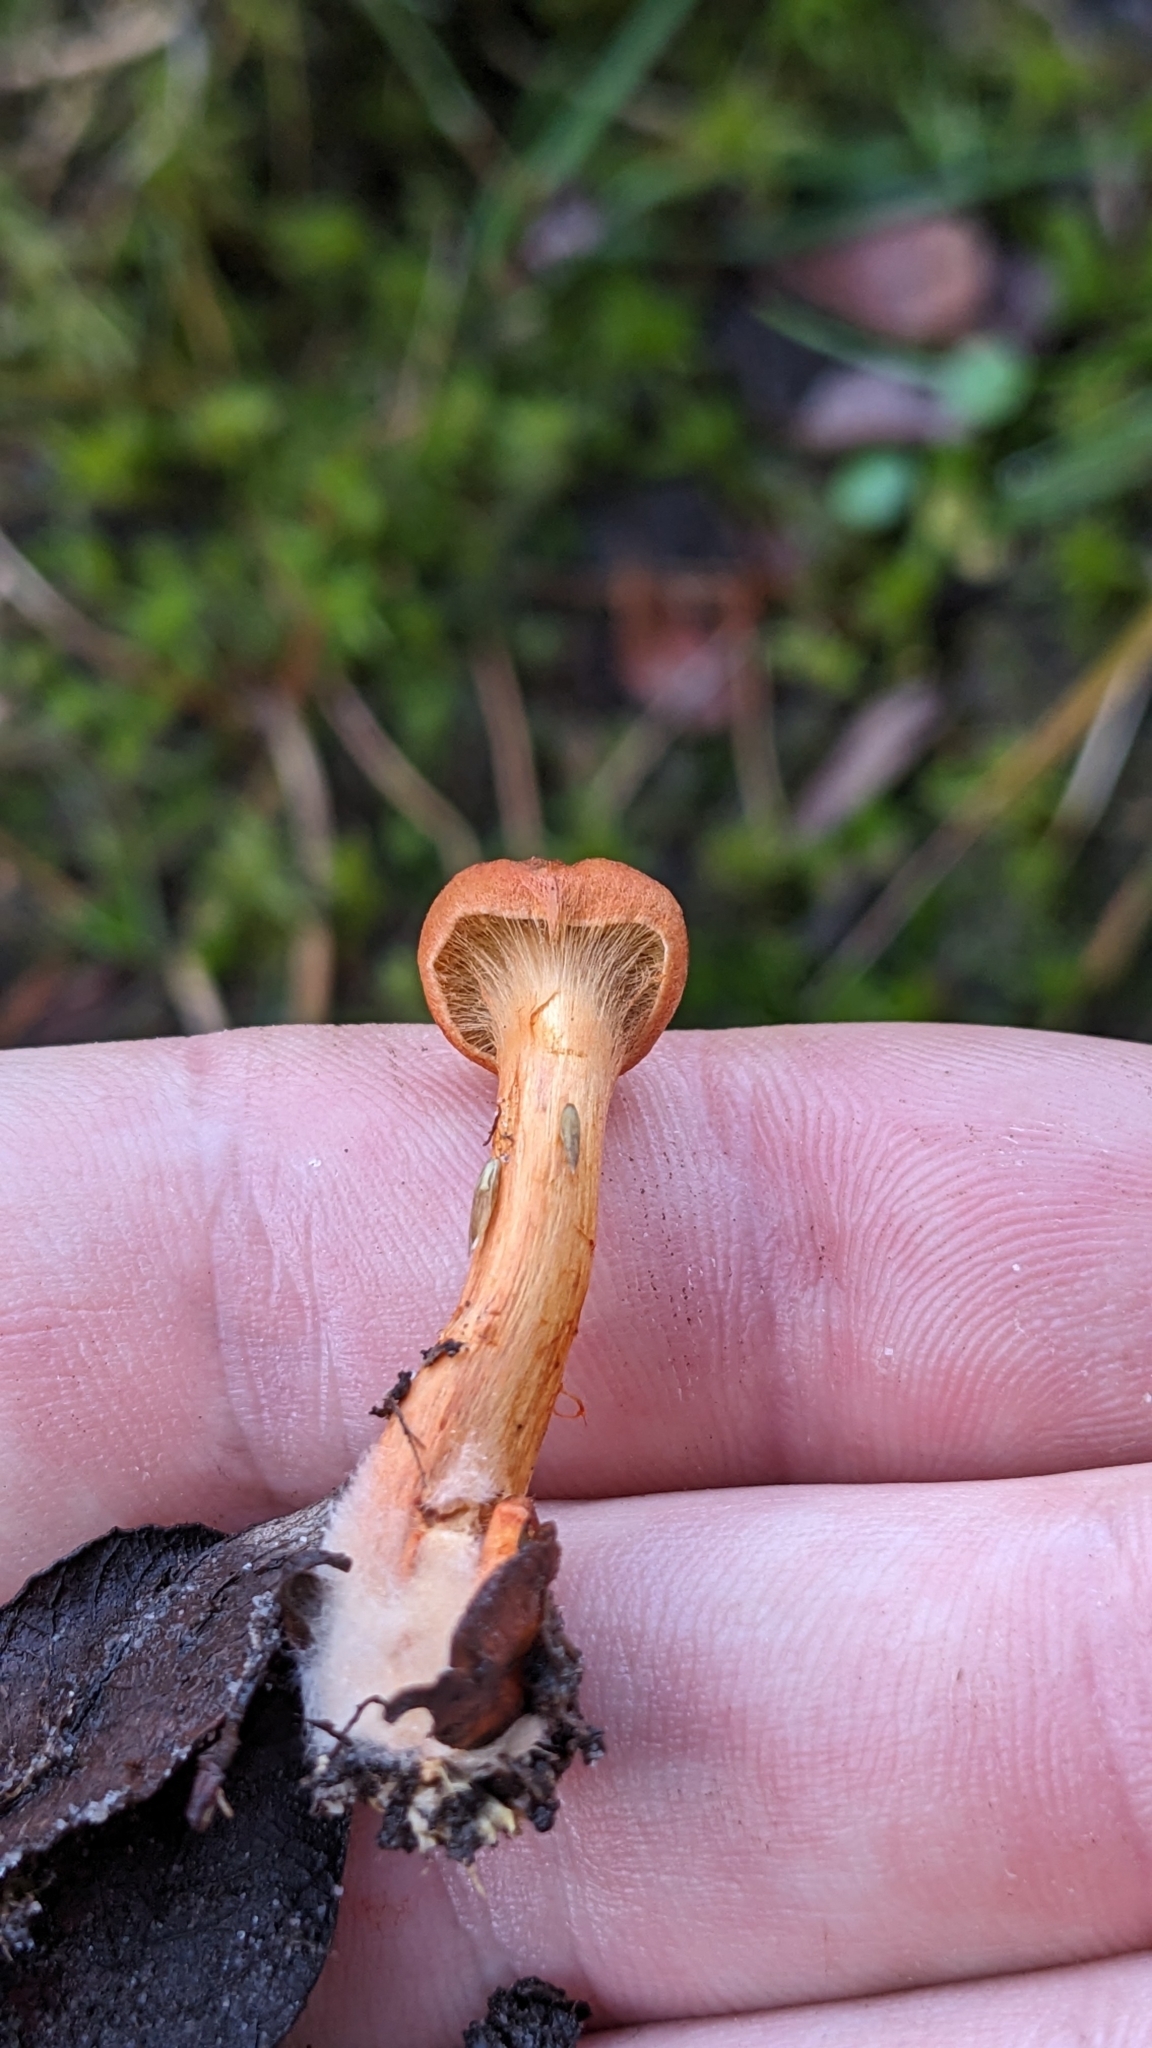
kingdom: Fungi
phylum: Basidiomycota
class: Agaricomycetes
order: Agaricales
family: Cortinariaceae
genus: Cortinarius
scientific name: Cortinarius uliginosus
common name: Marsh webcap
